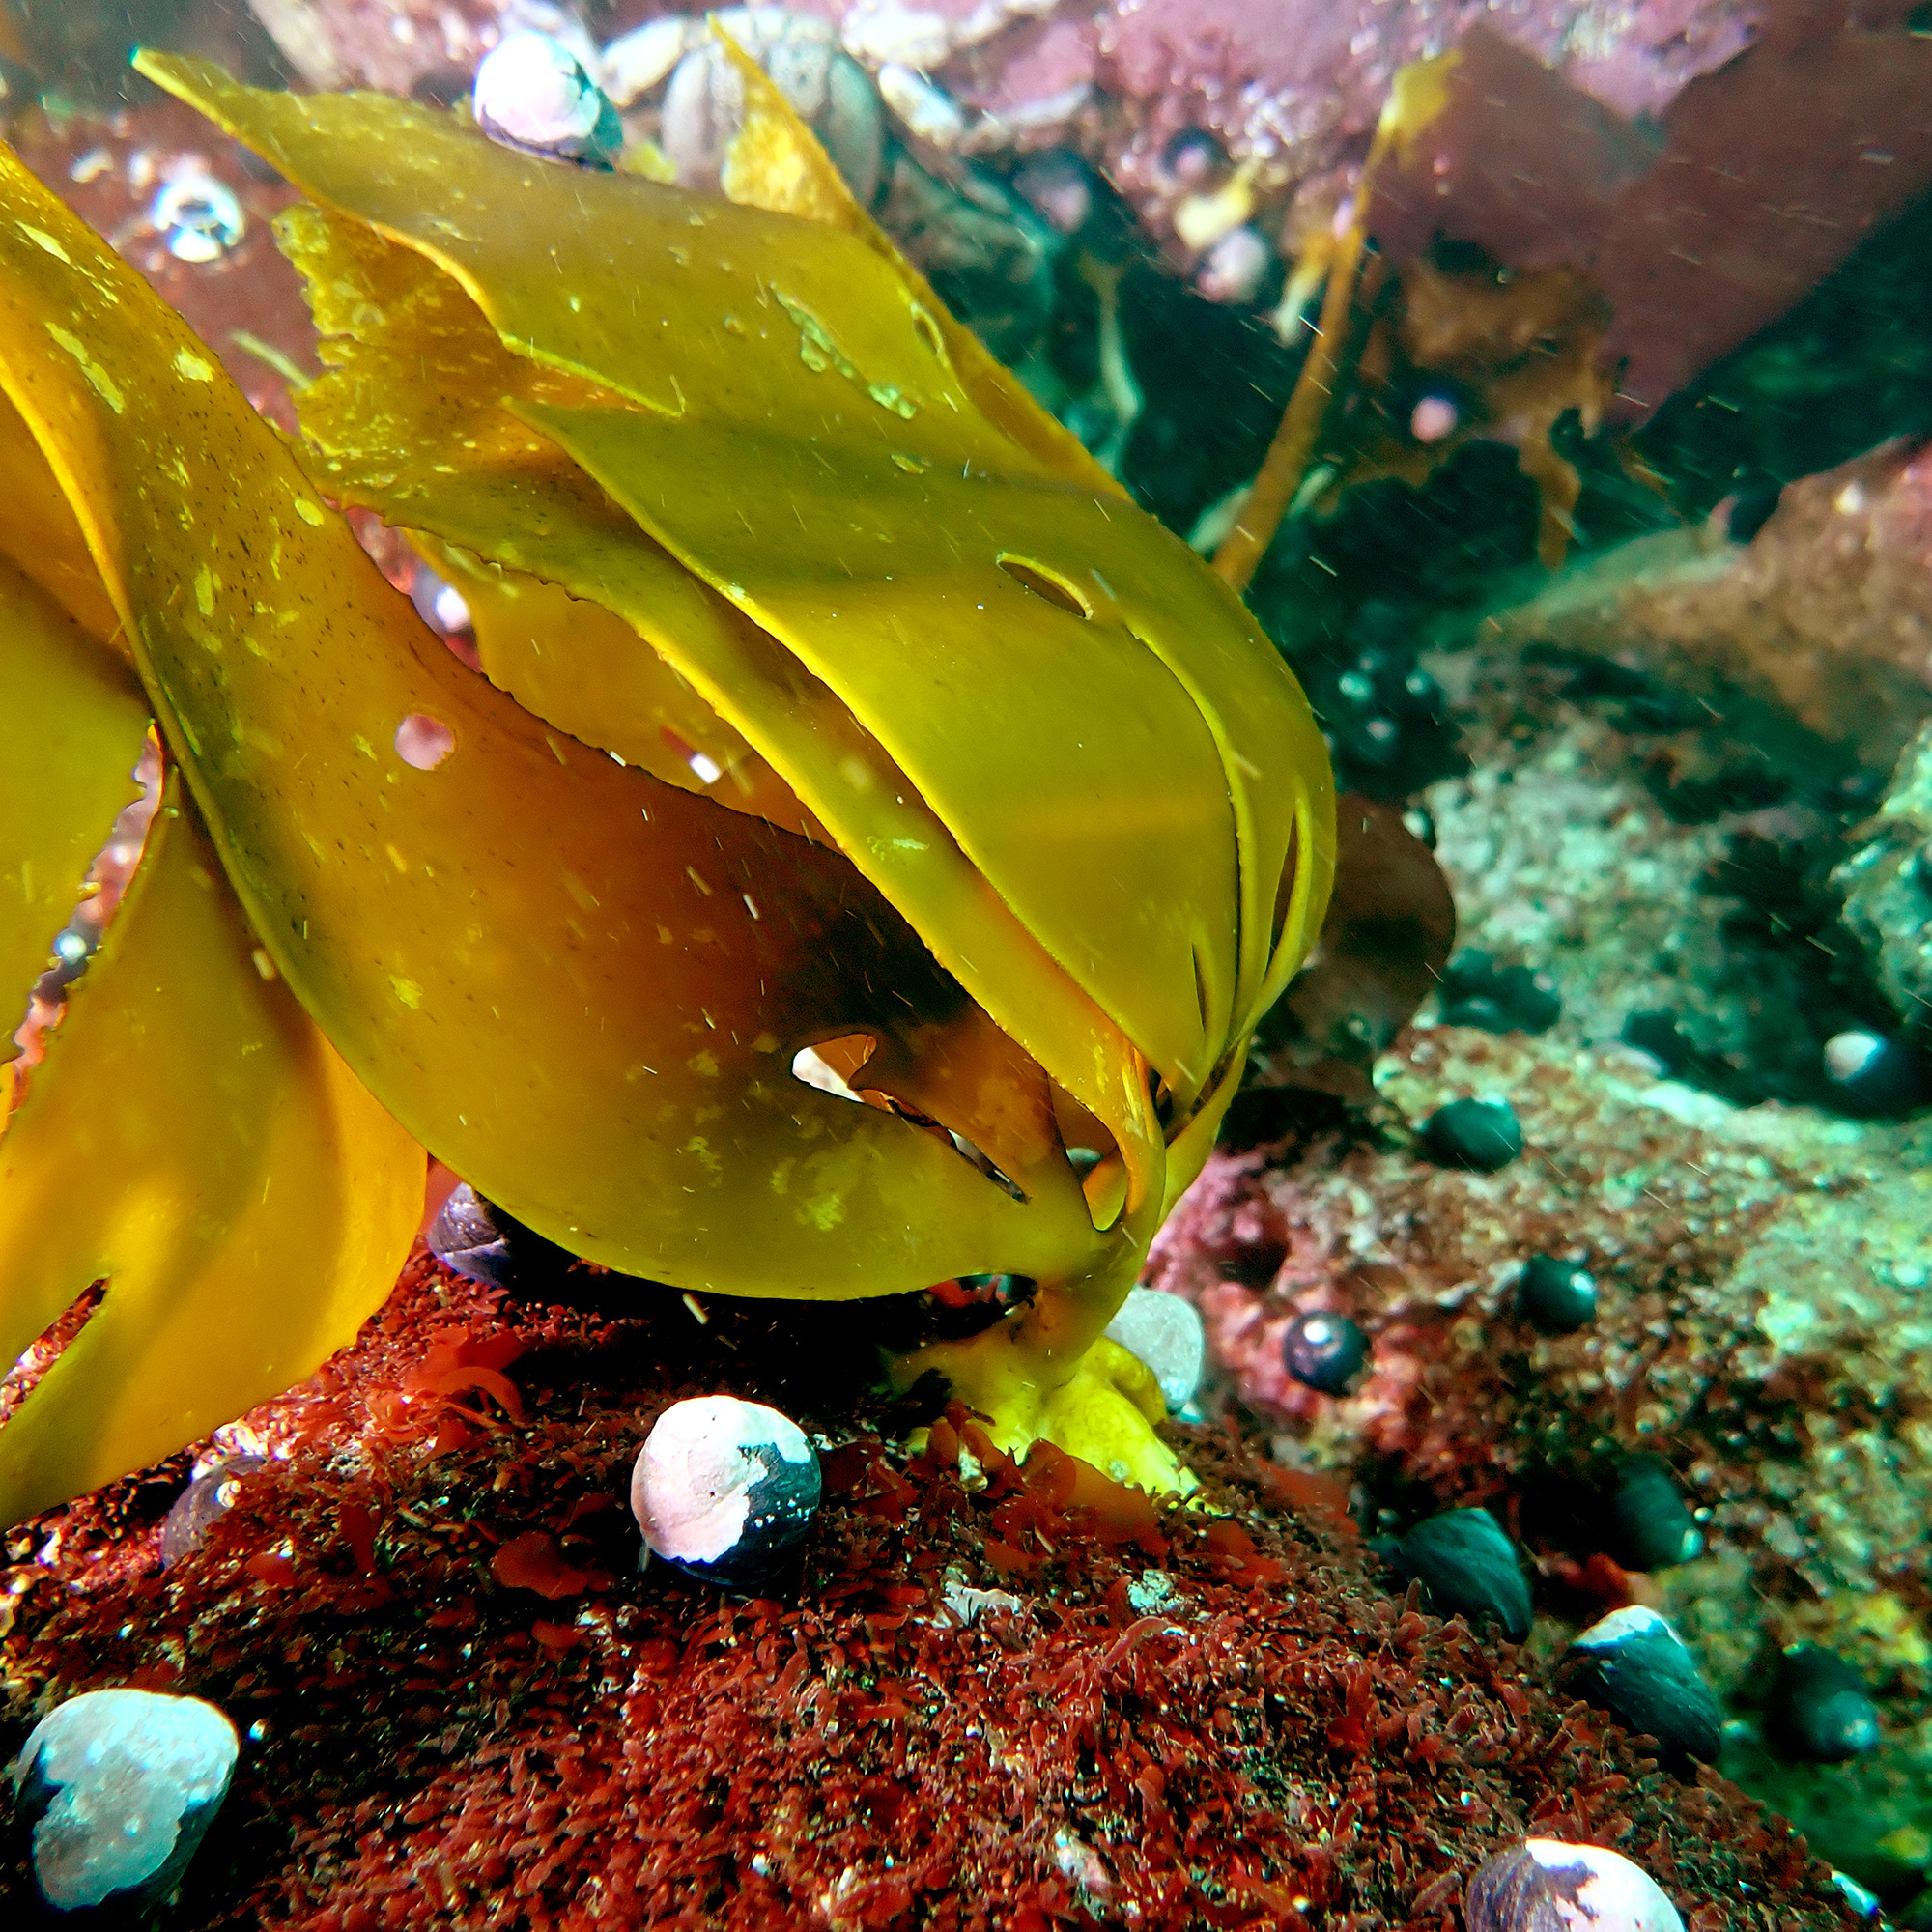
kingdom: Chromista
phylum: Ochrophyta
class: Phaeophyceae
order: Laminariales
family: Lessoniaceae
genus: Lessonia
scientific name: Lessonia trabeculata
